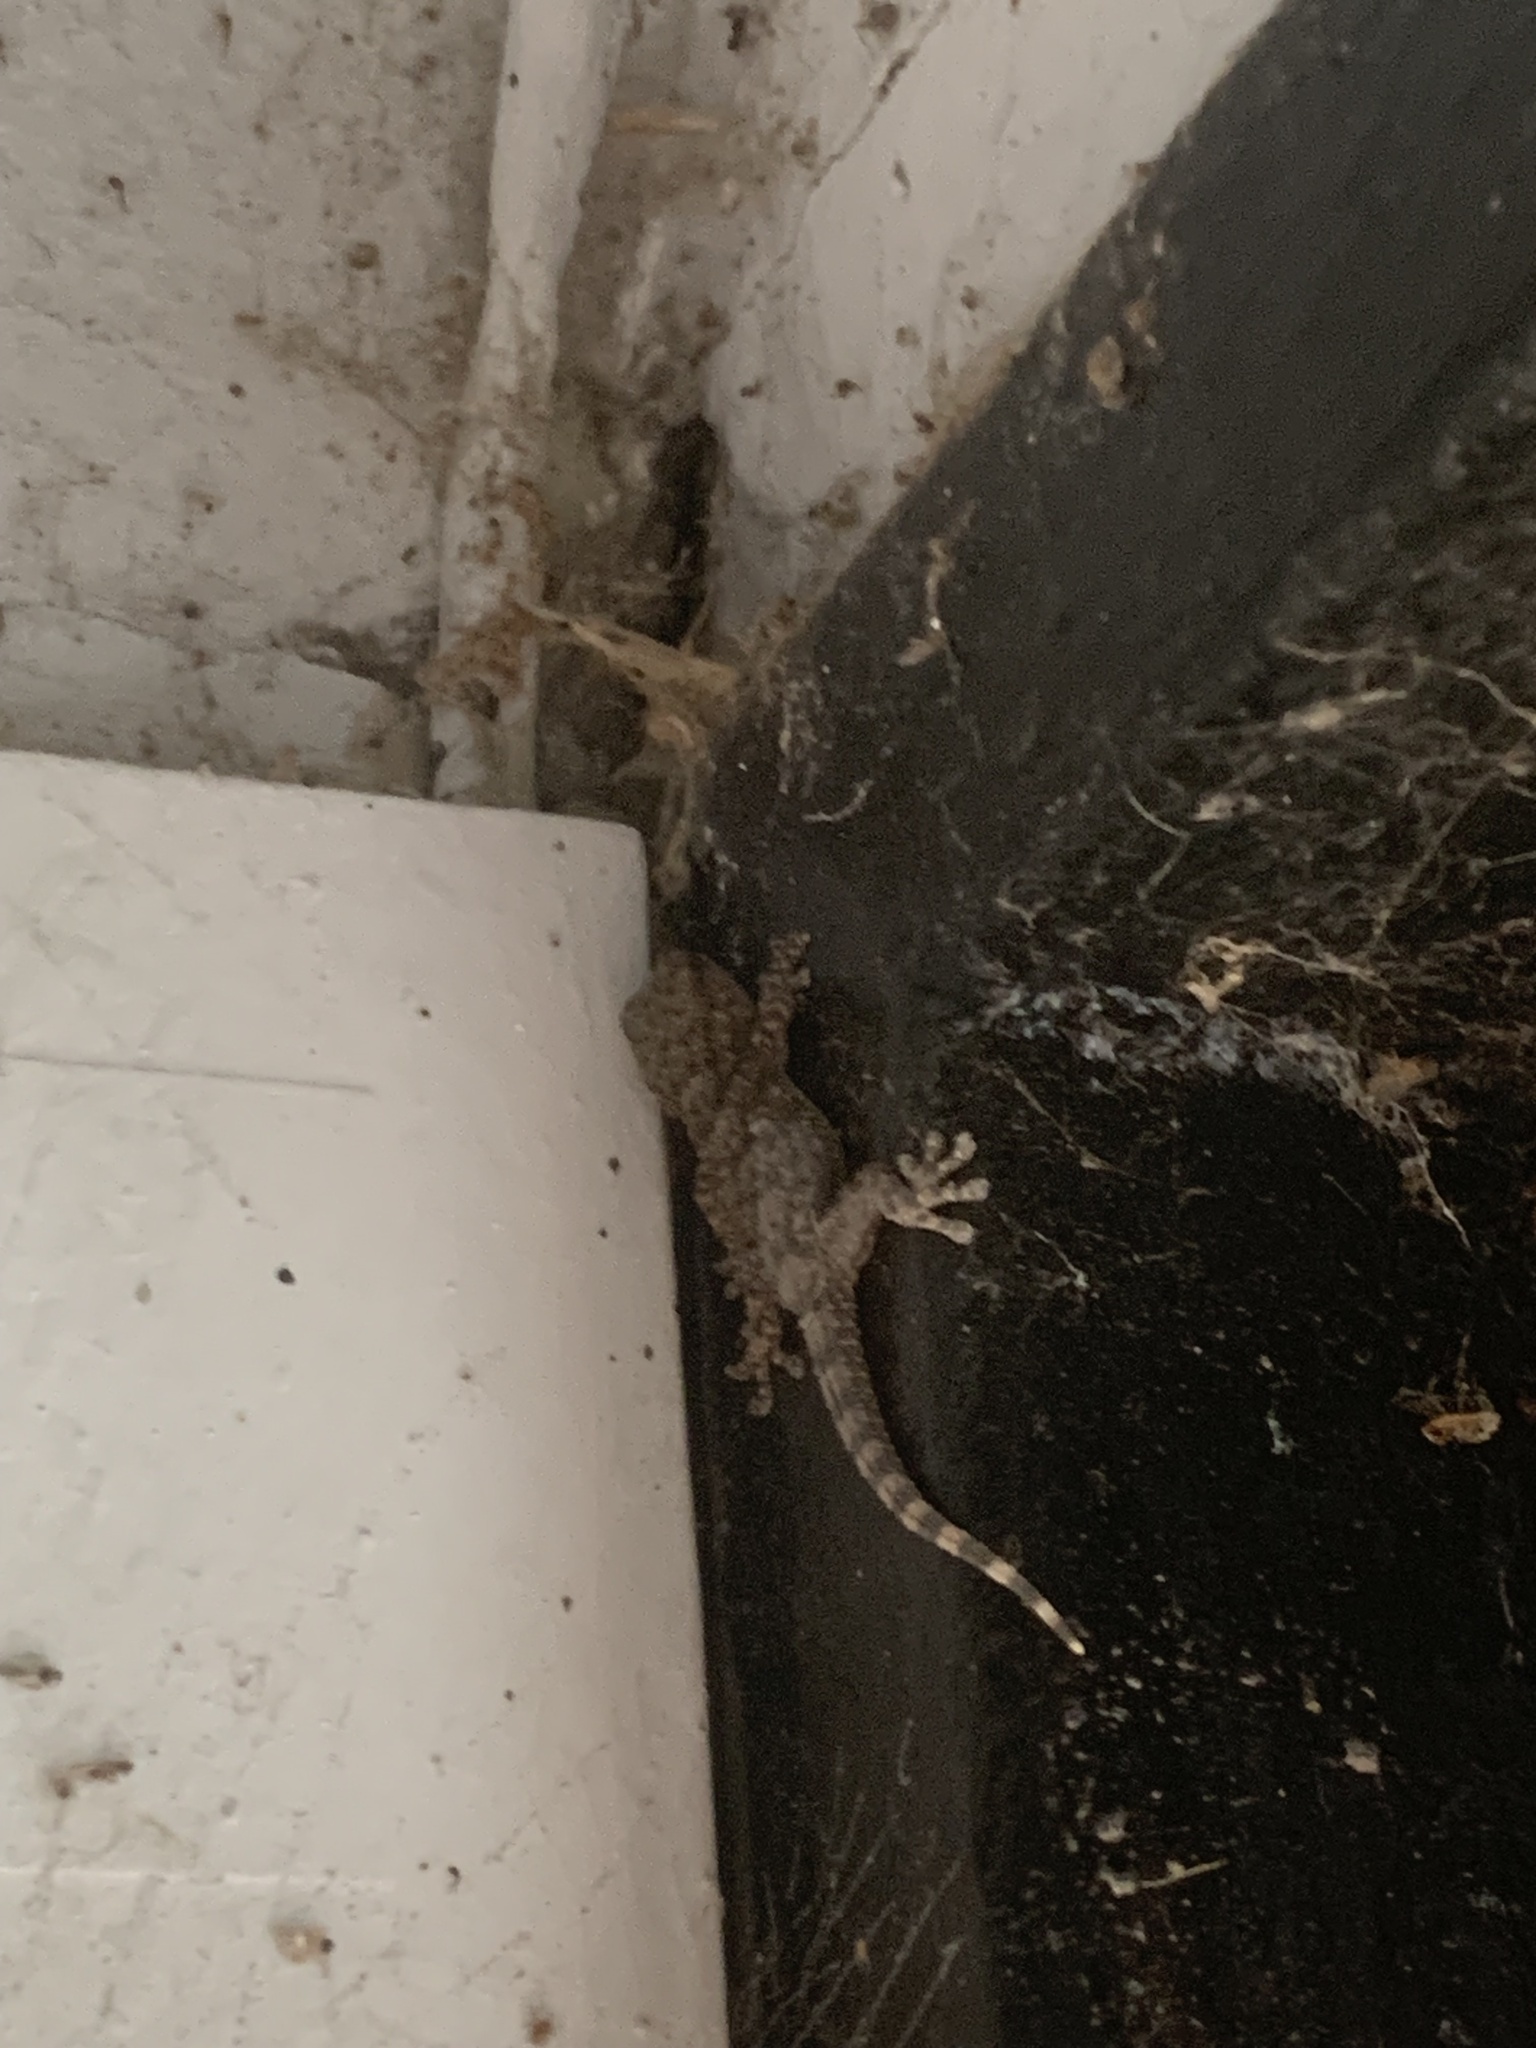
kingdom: Animalia
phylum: Chordata
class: Squamata
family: Phyllodactylidae
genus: Tarentola
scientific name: Tarentola mauritanica
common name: Moorish gecko
